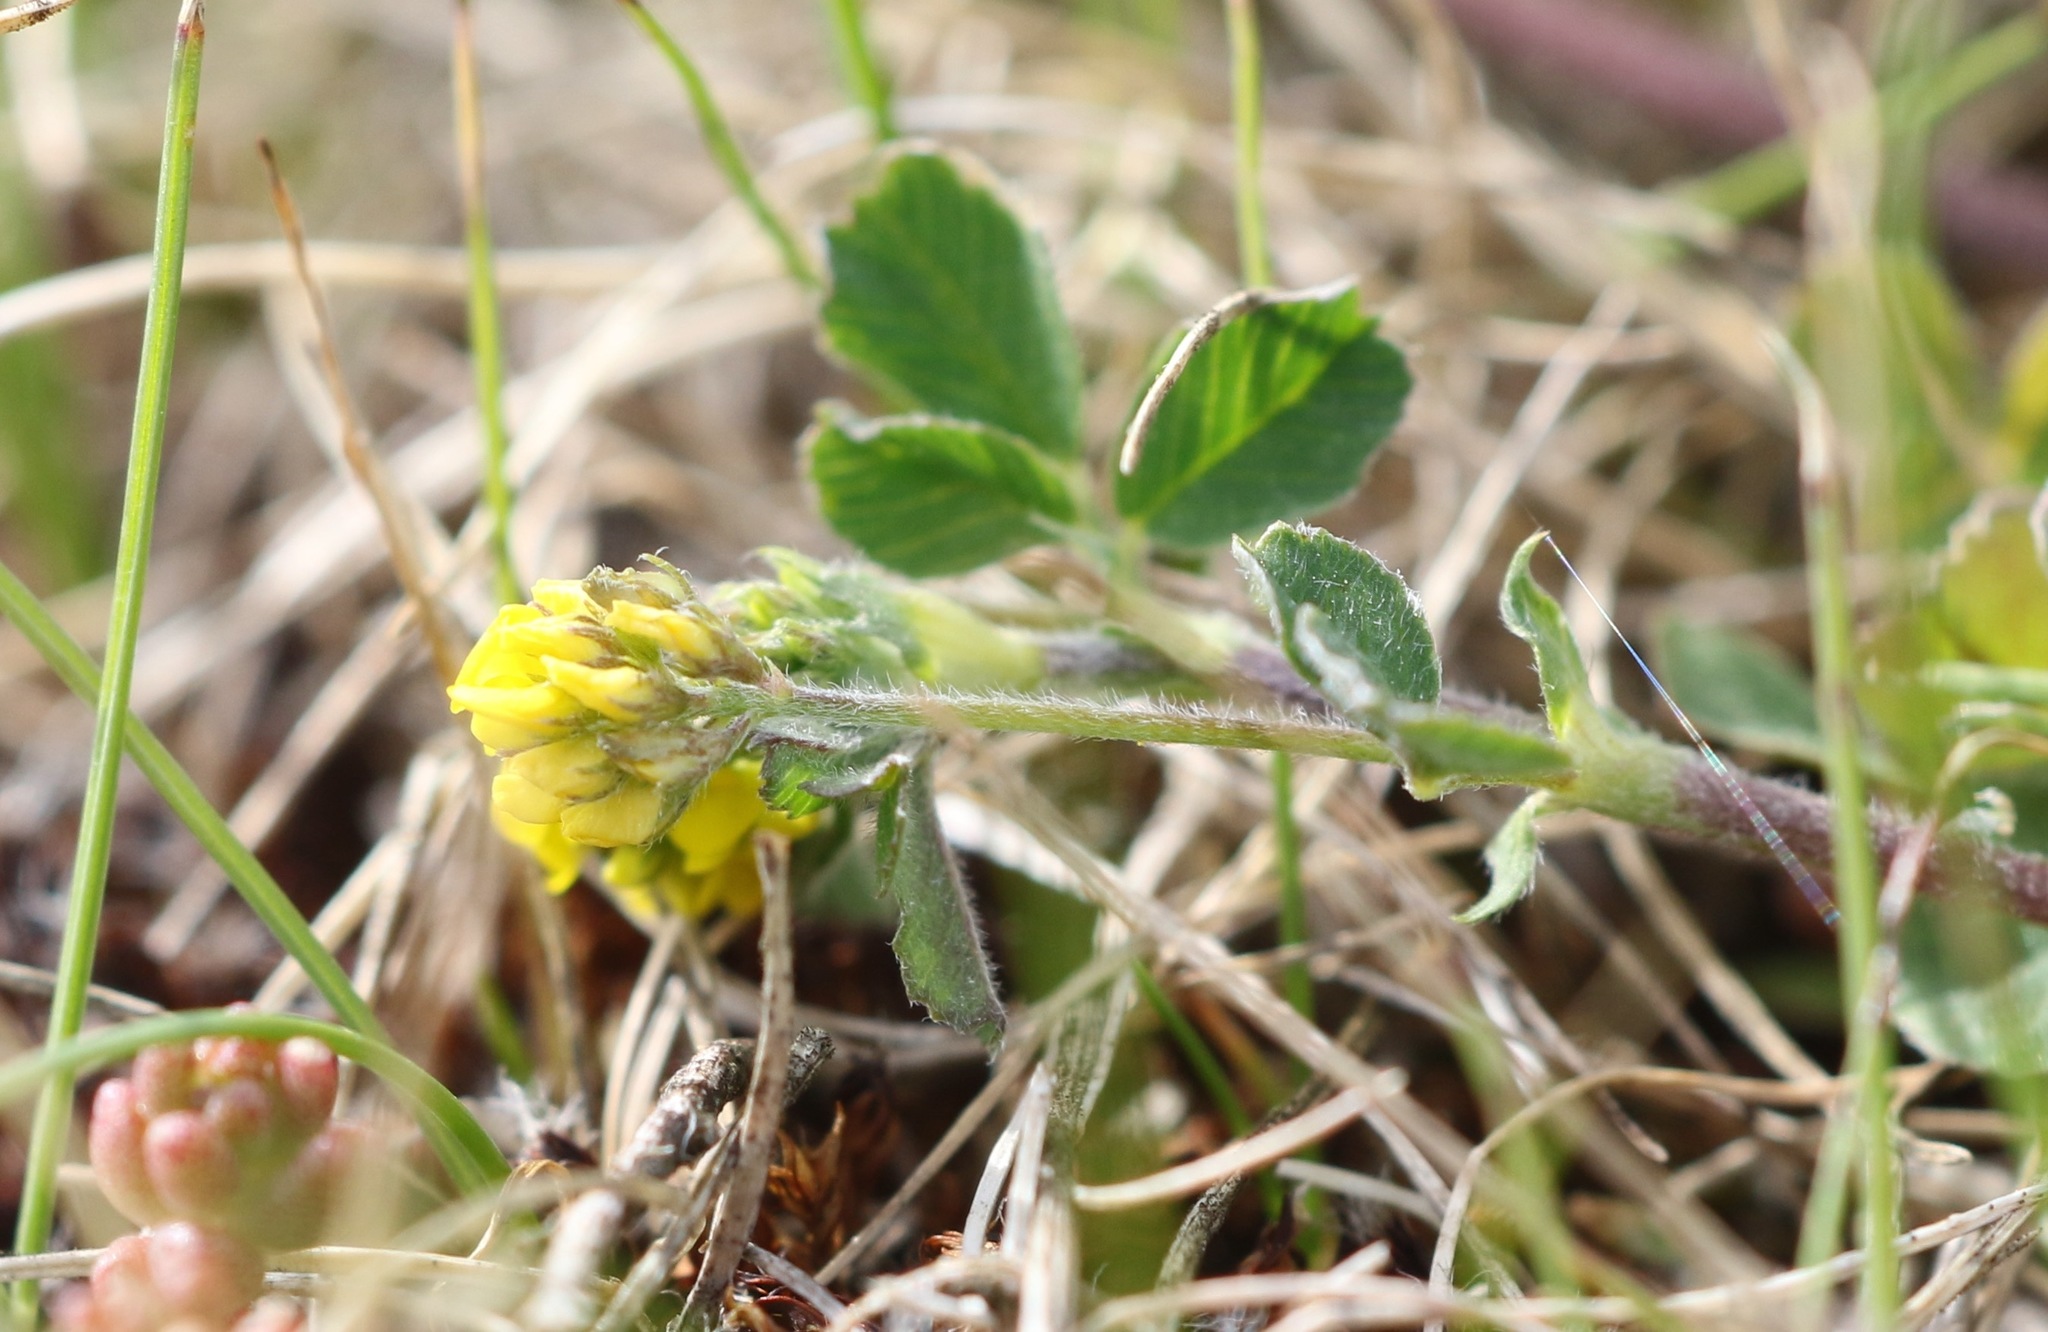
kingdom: Plantae
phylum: Tracheophyta
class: Magnoliopsida
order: Fabales
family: Fabaceae
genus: Medicago
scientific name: Medicago lupulina
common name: Black medick
